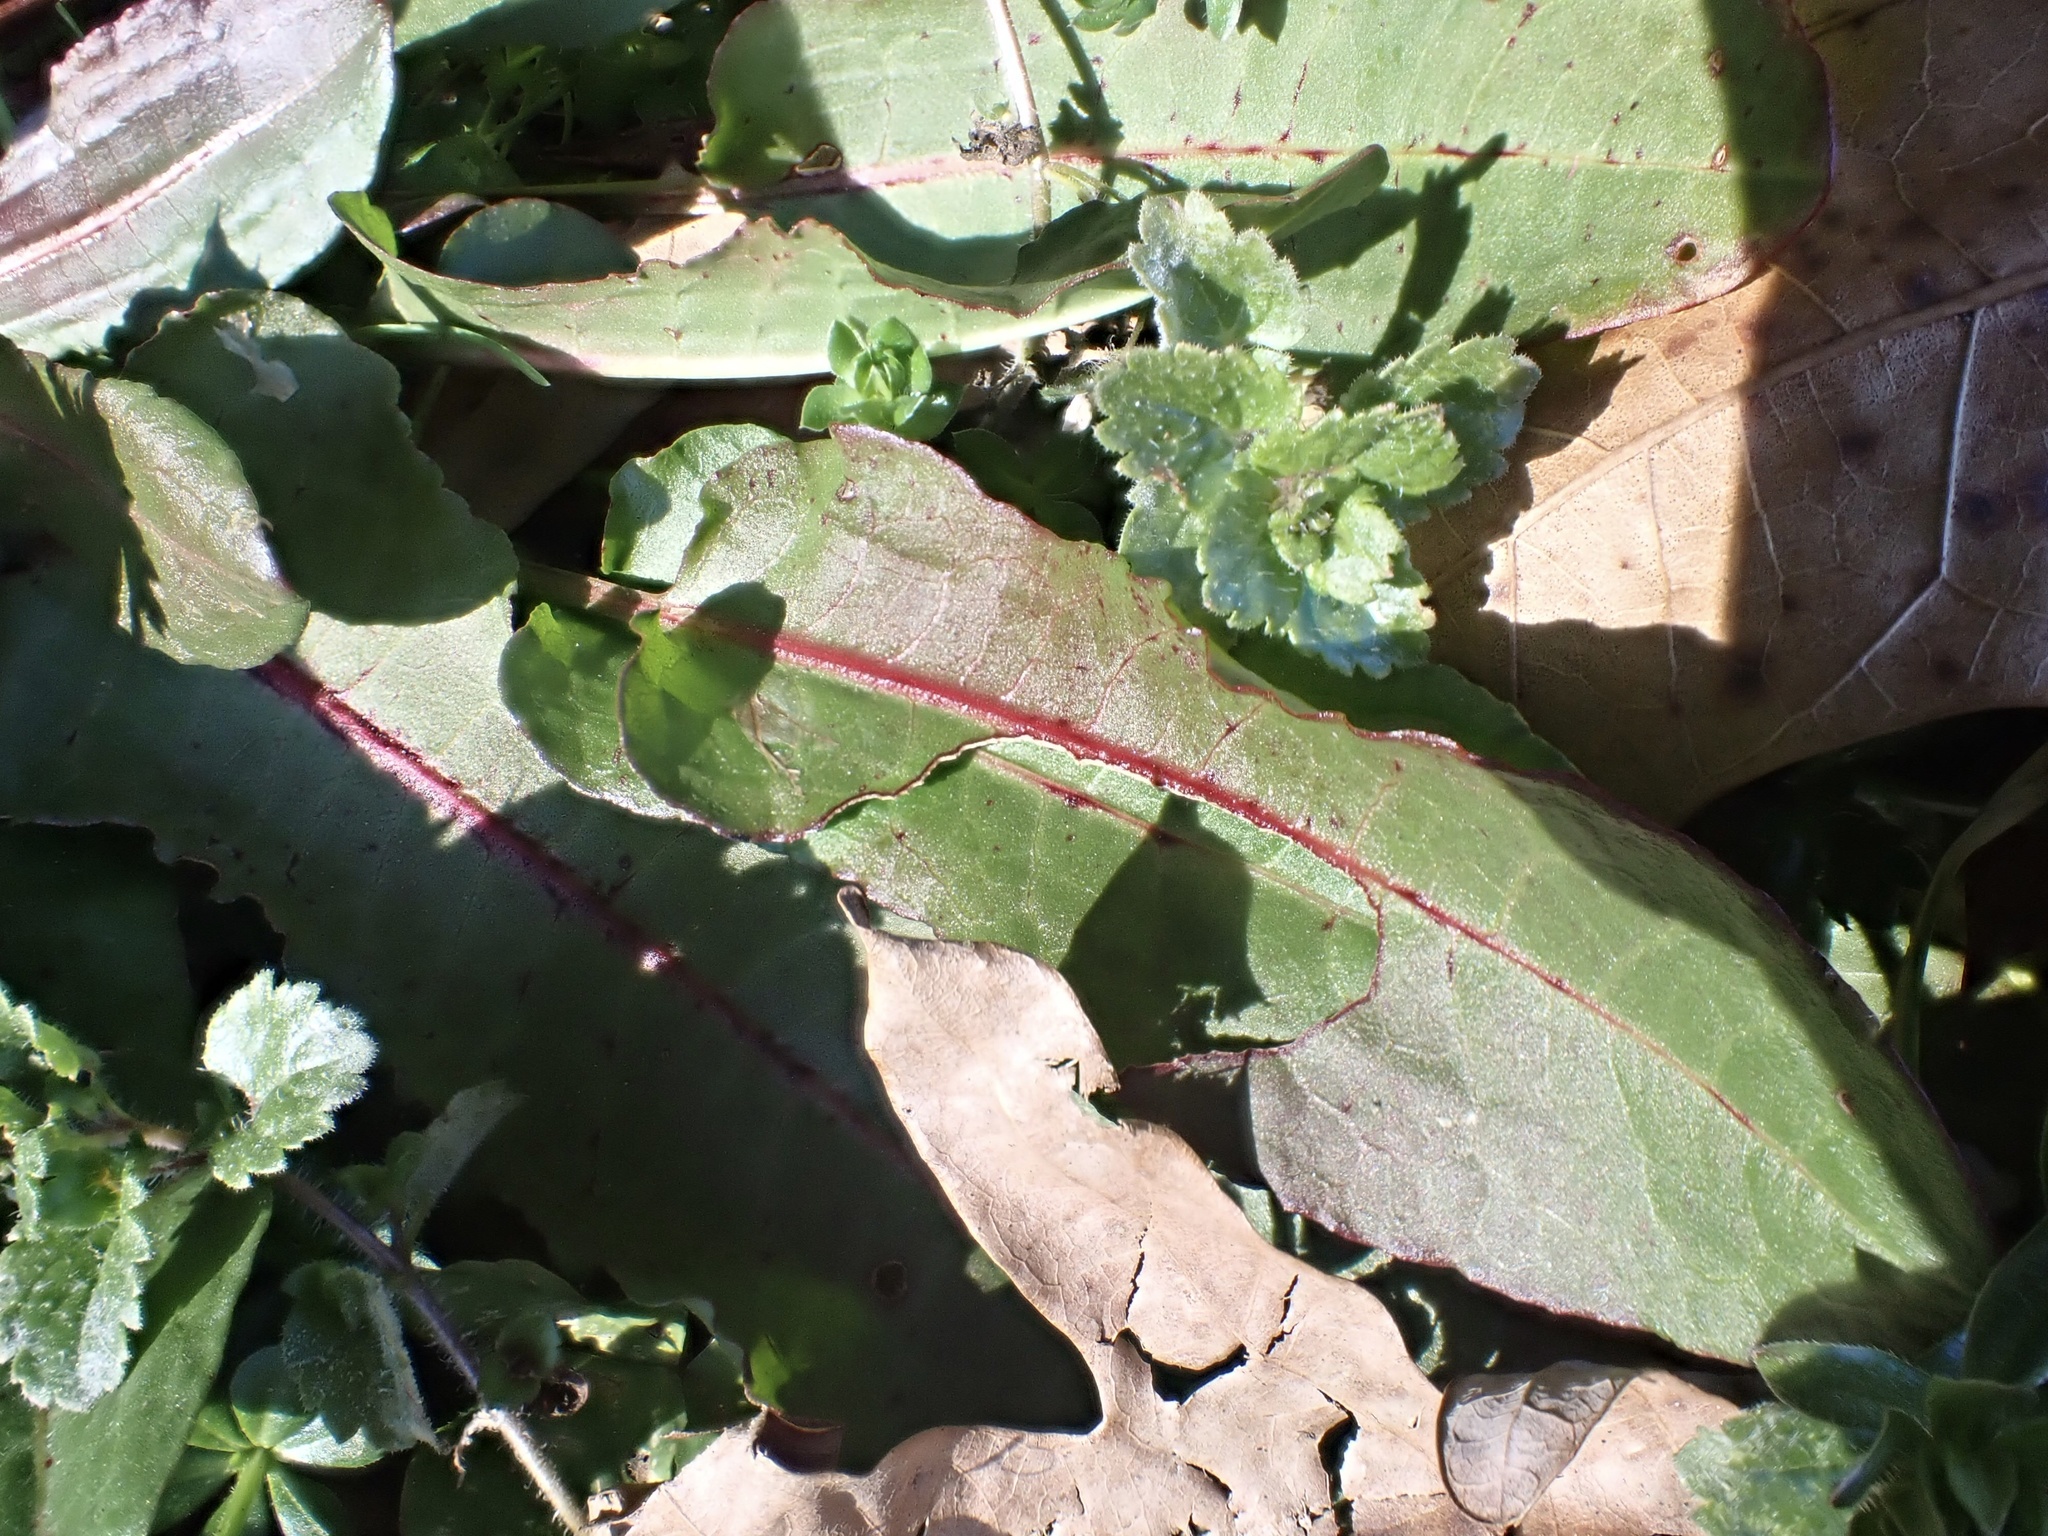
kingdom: Plantae
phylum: Tracheophyta
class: Magnoliopsida
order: Caryophyllales
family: Polygonaceae
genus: Rumex
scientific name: Rumex crispus
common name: Curled dock
